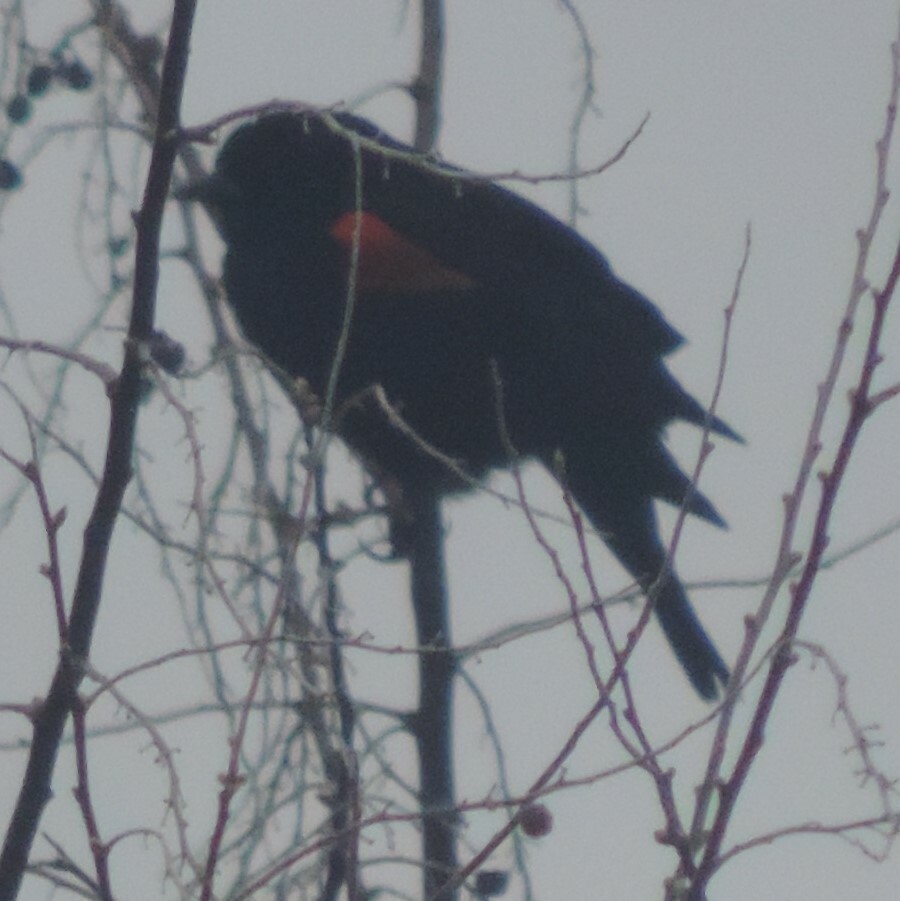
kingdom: Animalia
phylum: Chordata
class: Aves
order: Passeriformes
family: Icteridae
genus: Agelaius
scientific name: Agelaius phoeniceus
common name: Red-winged blackbird
